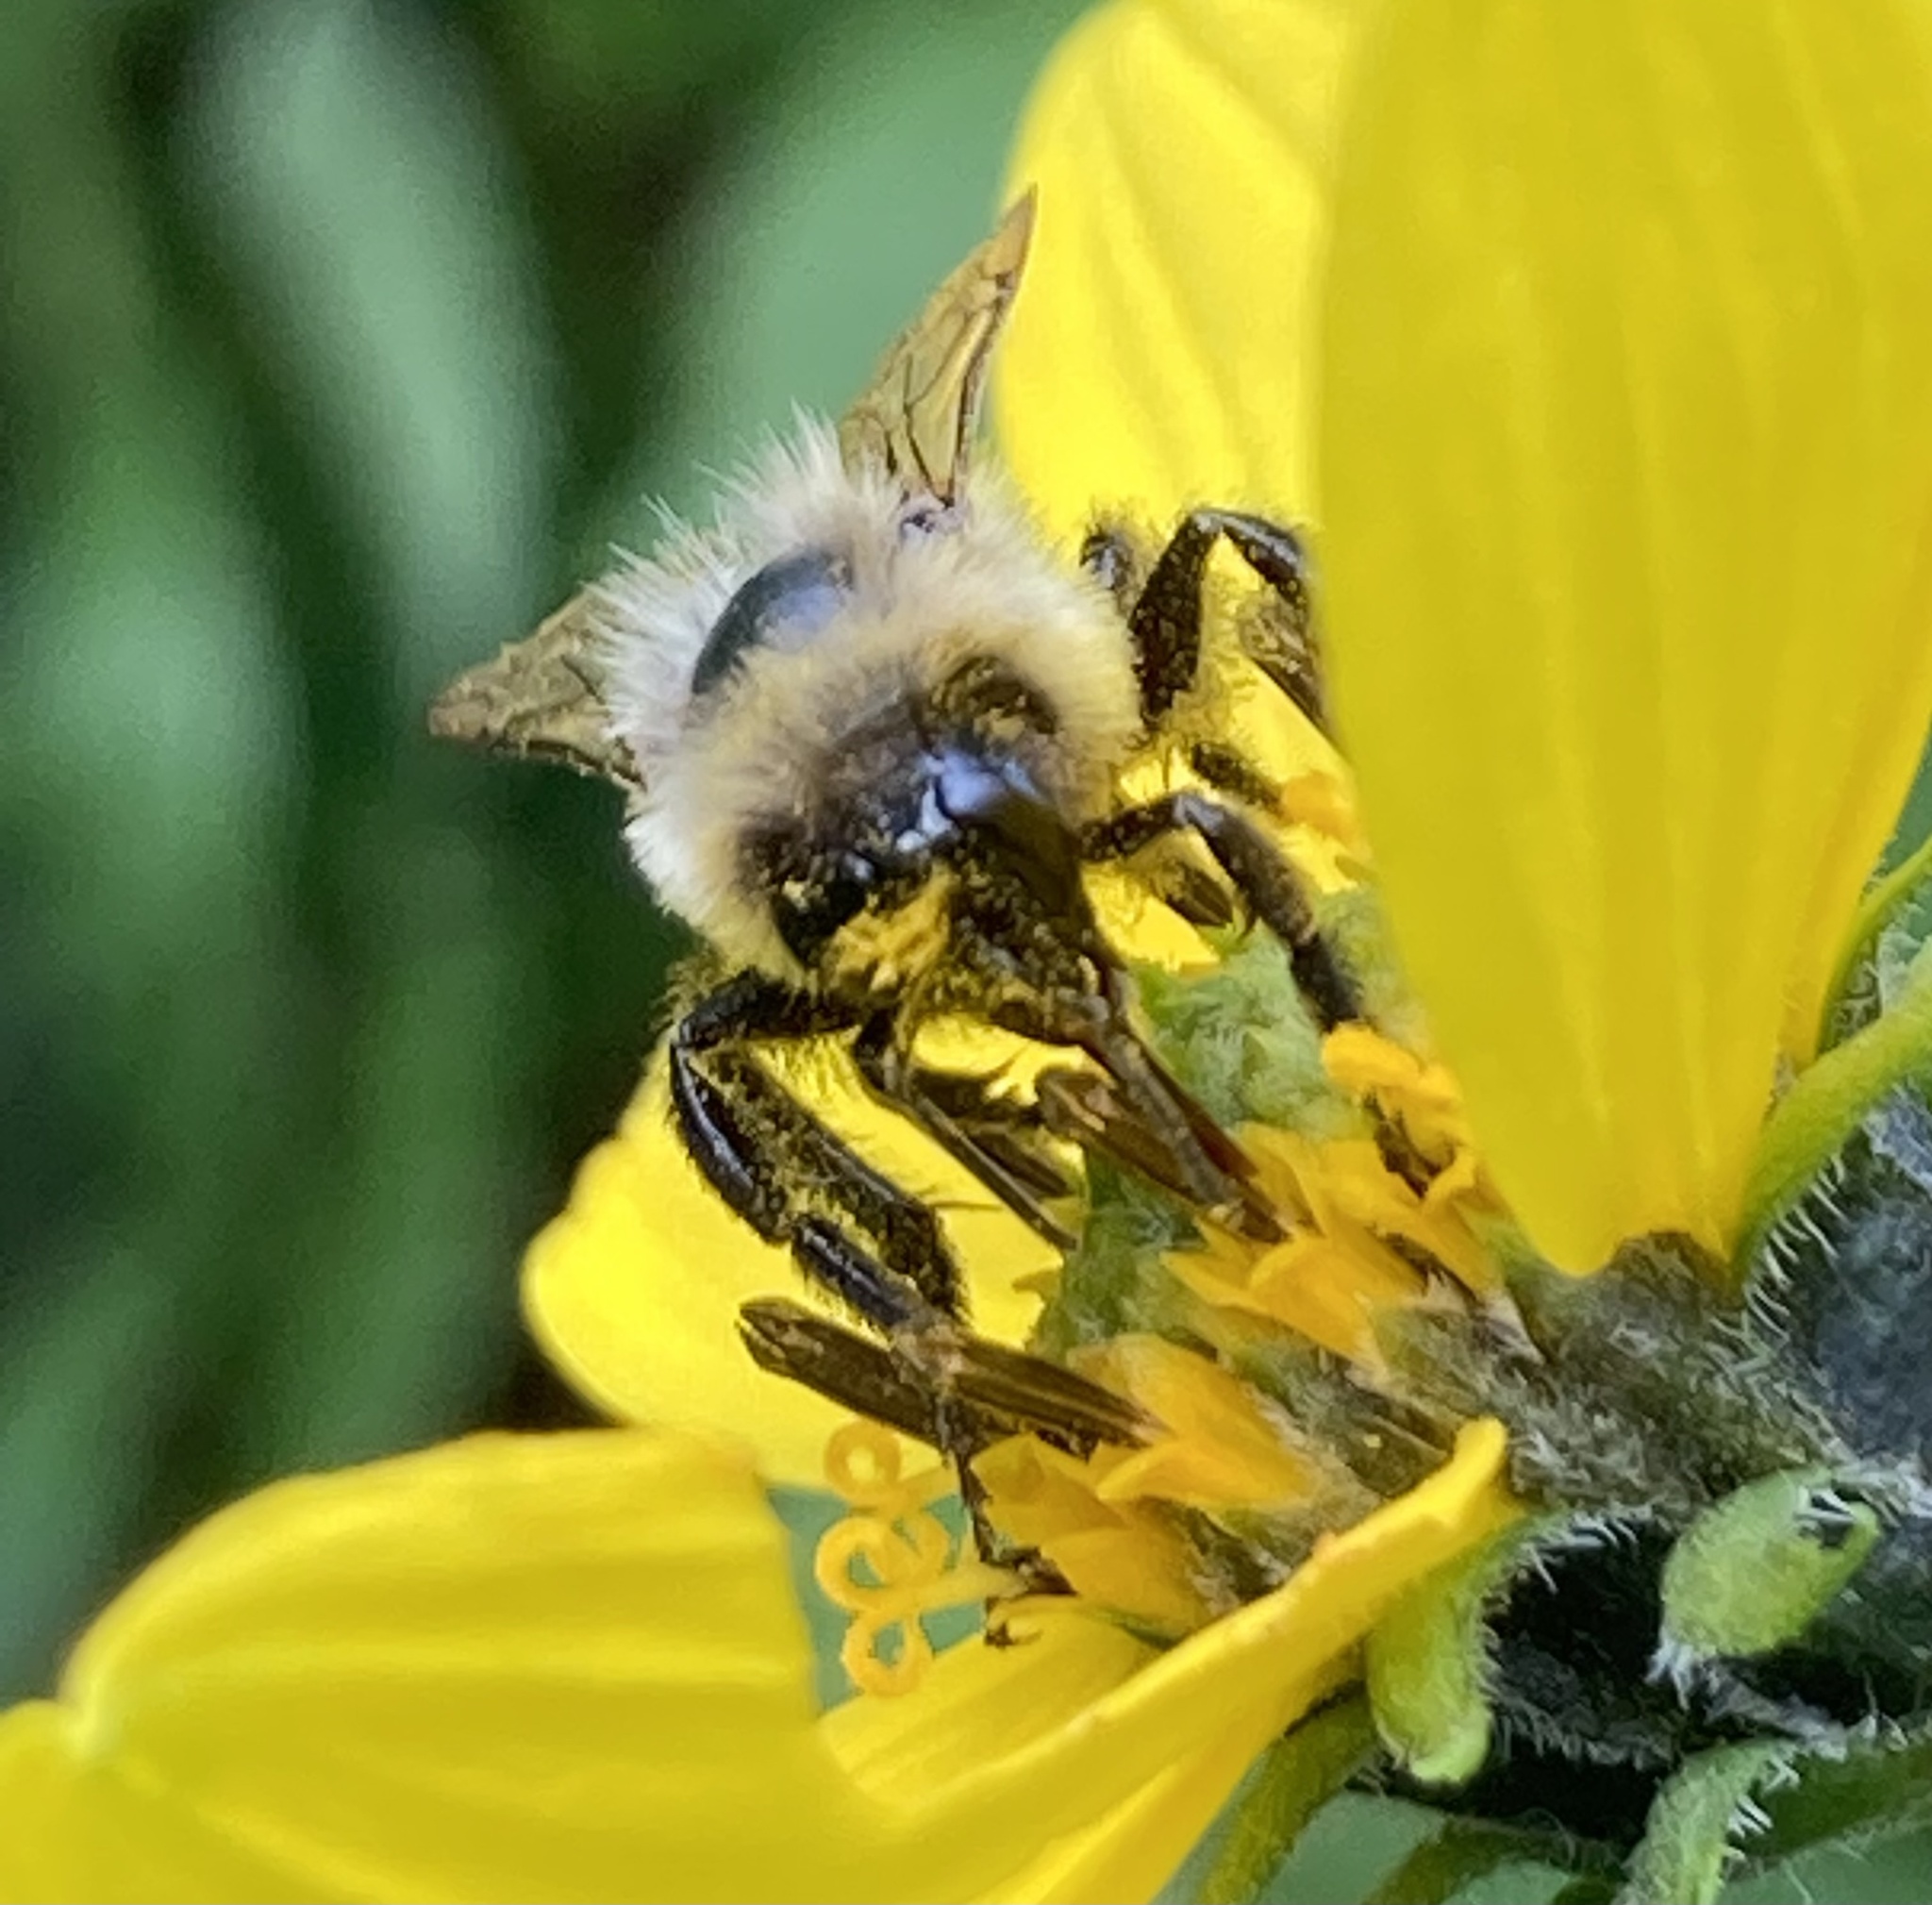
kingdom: Animalia
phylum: Arthropoda
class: Insecta
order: Hymenoptera
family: Apidae
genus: Bombus
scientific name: Bombus impatiens
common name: Common eastern bumble bee
